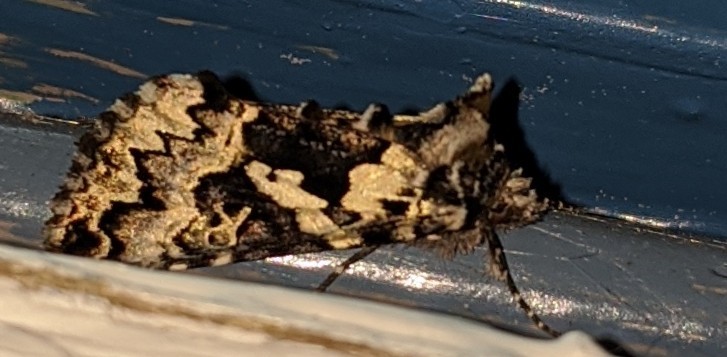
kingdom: Animalia
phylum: Arthropoda
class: Insecta
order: Lepidoptera
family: Noctuidae
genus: Syngrapha
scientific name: Syngrapha rectangula
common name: Angulated cutworm
